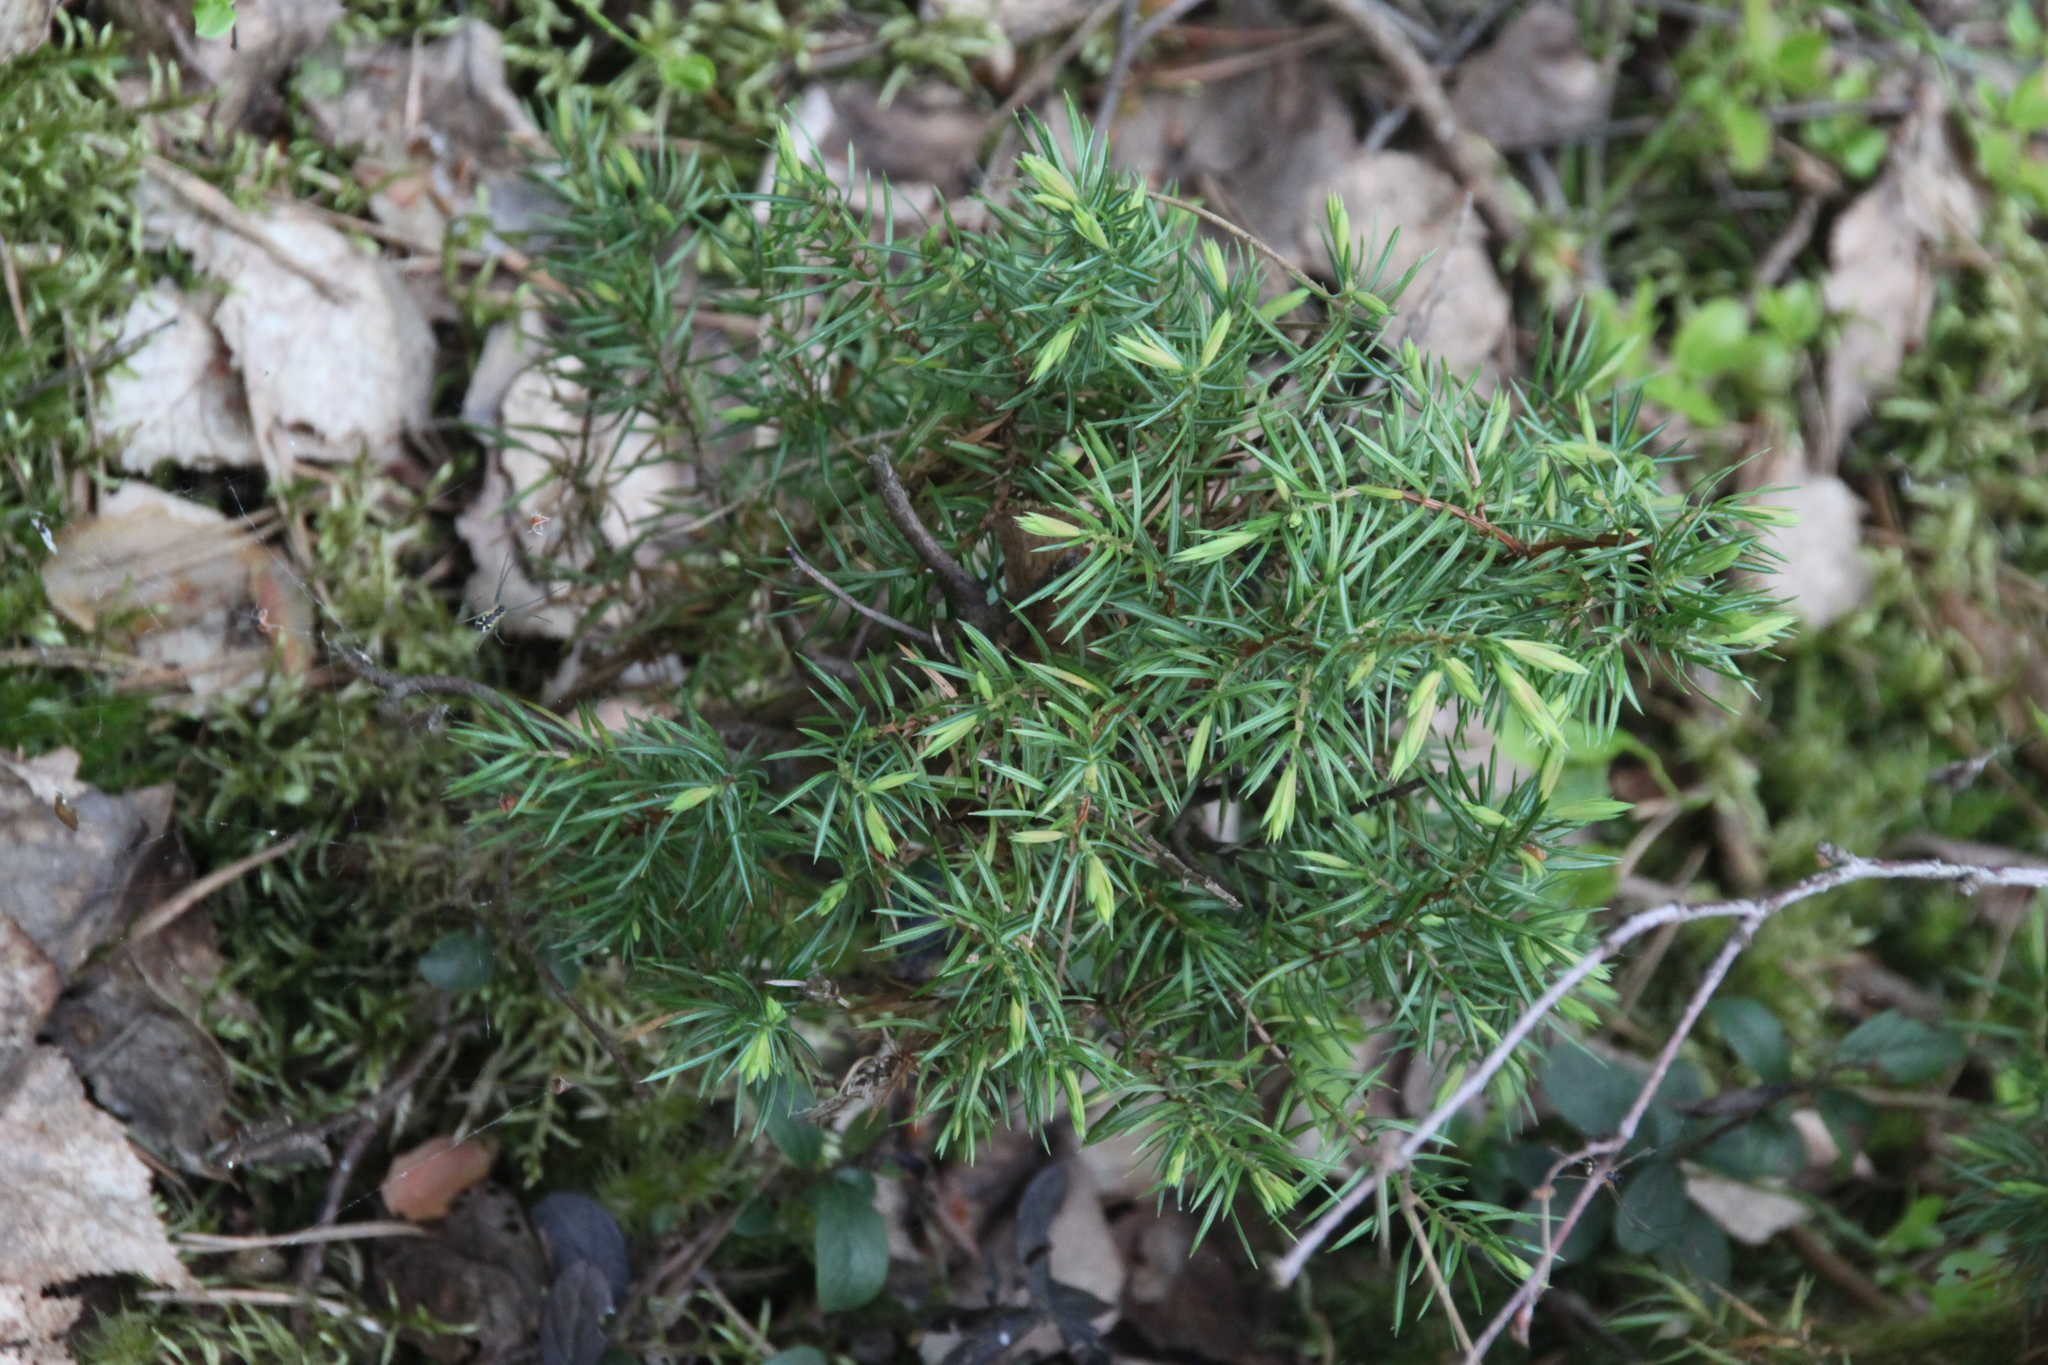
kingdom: Plantae
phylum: Tracheophyta
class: Pinopsida
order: Pinales
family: Cupressaceae
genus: Juniperus
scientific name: Juniperus communis
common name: Common juniper
